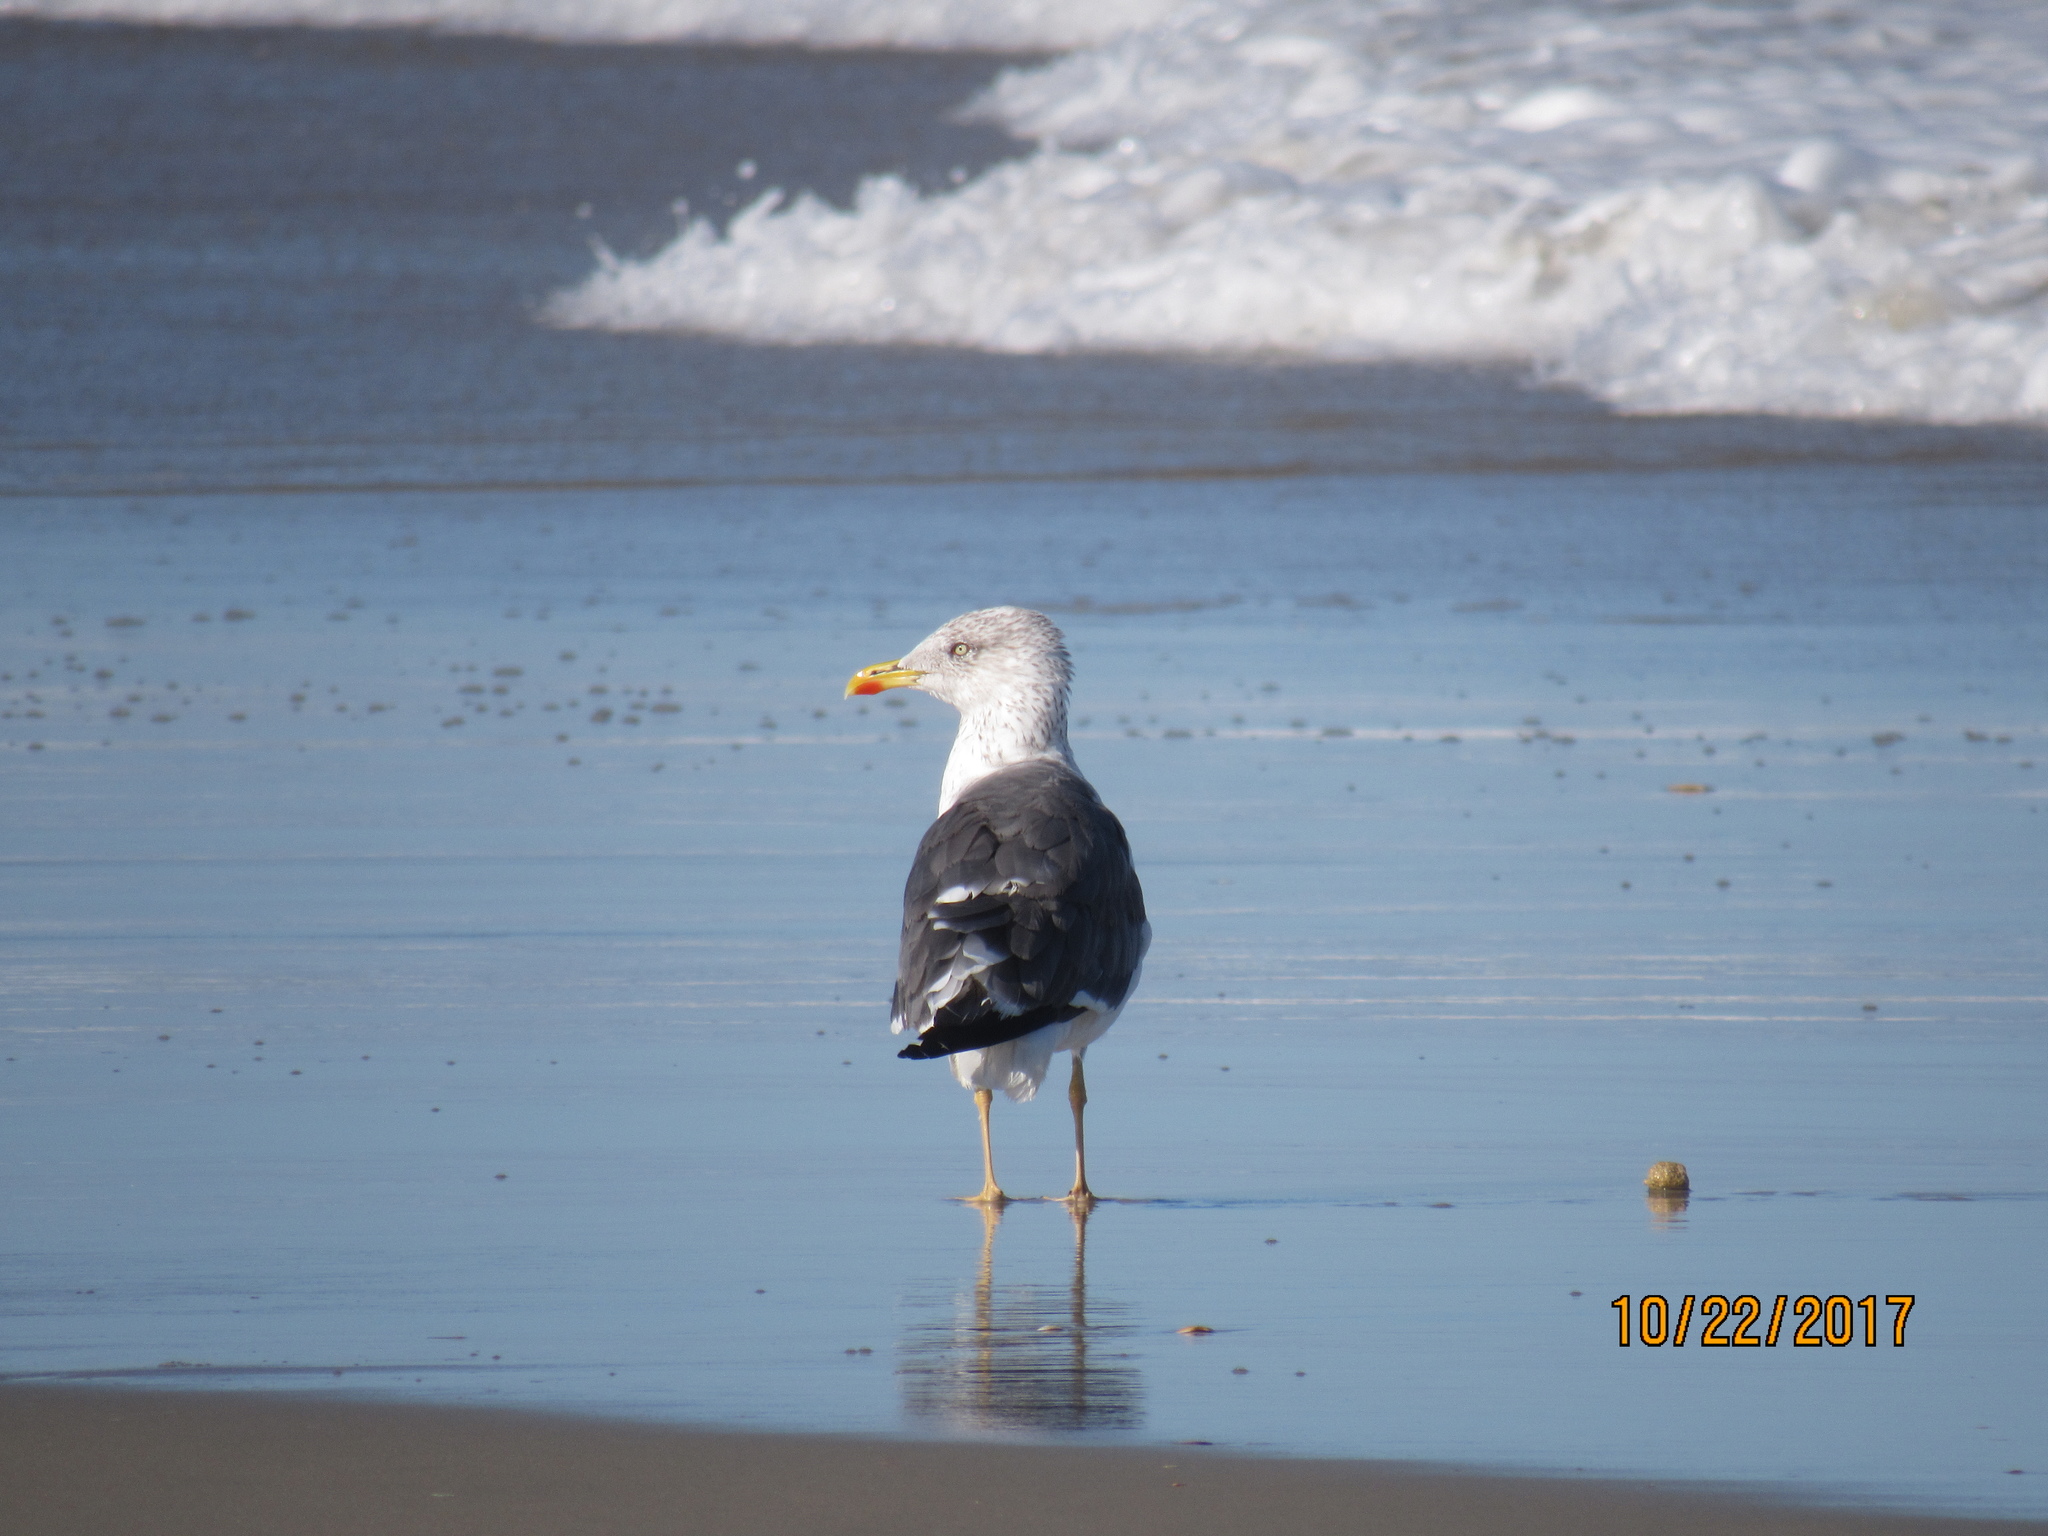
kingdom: Animalia
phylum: Chordata
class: Aves
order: Charadriiformes
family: Laridae
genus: Larus
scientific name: Larus fuscus
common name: Lesser black-backed gull
